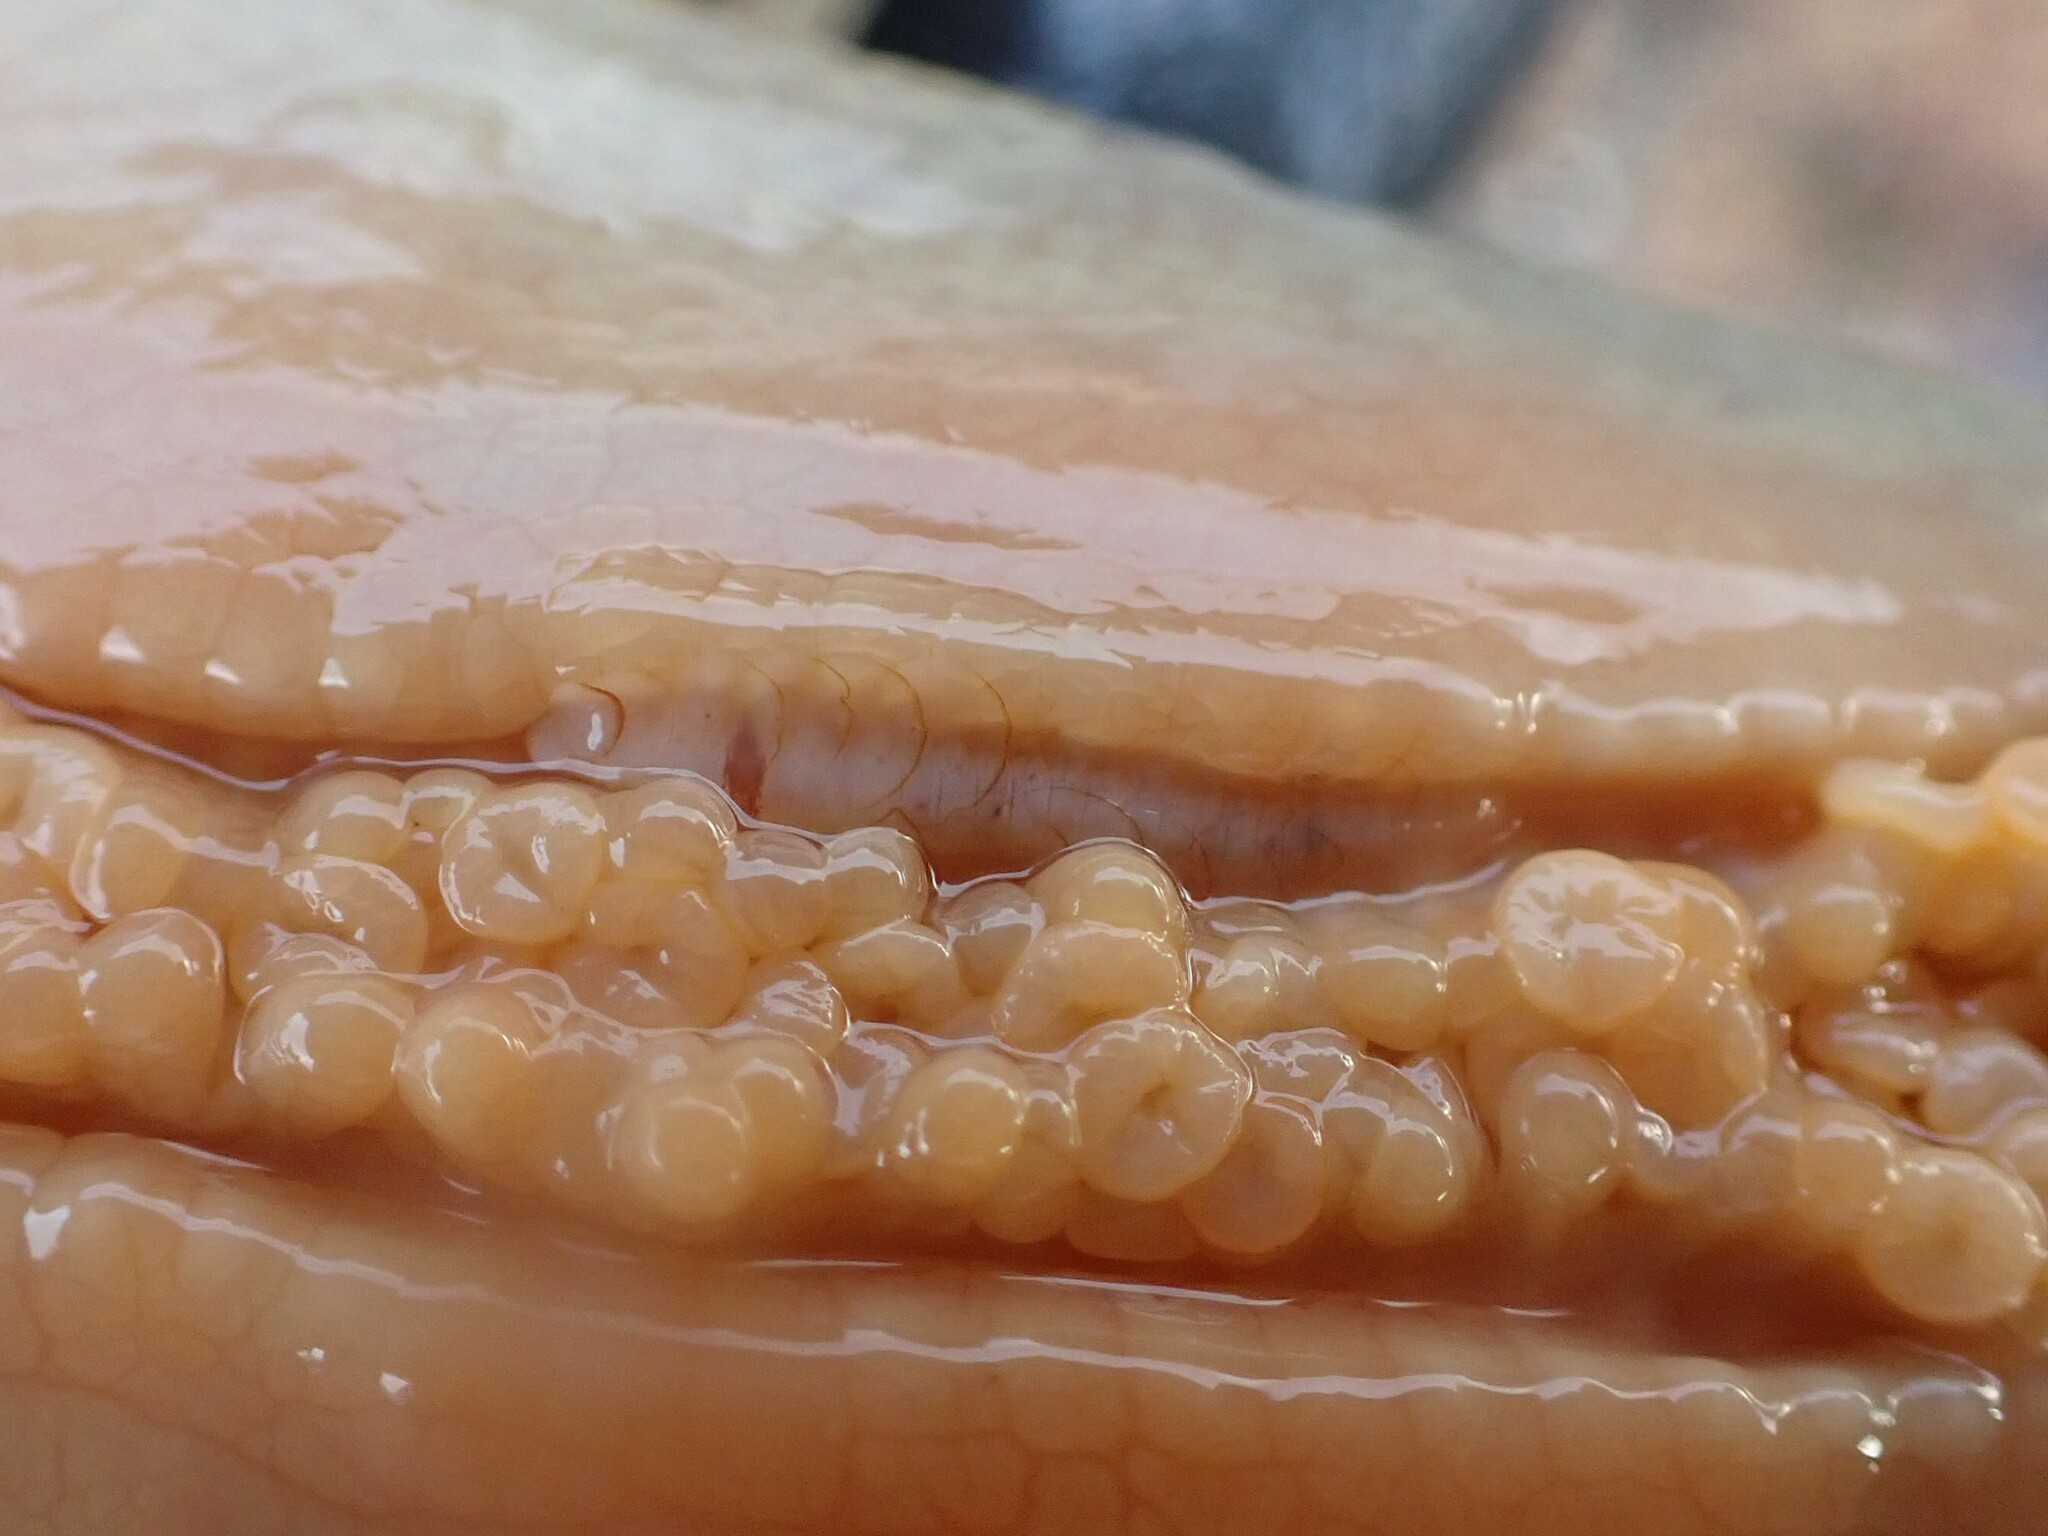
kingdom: Animalia
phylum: Annelida
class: Polychaeta
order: Phyllodocida
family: Polynoidae
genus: Arctonoe
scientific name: Arctonoe vittata
